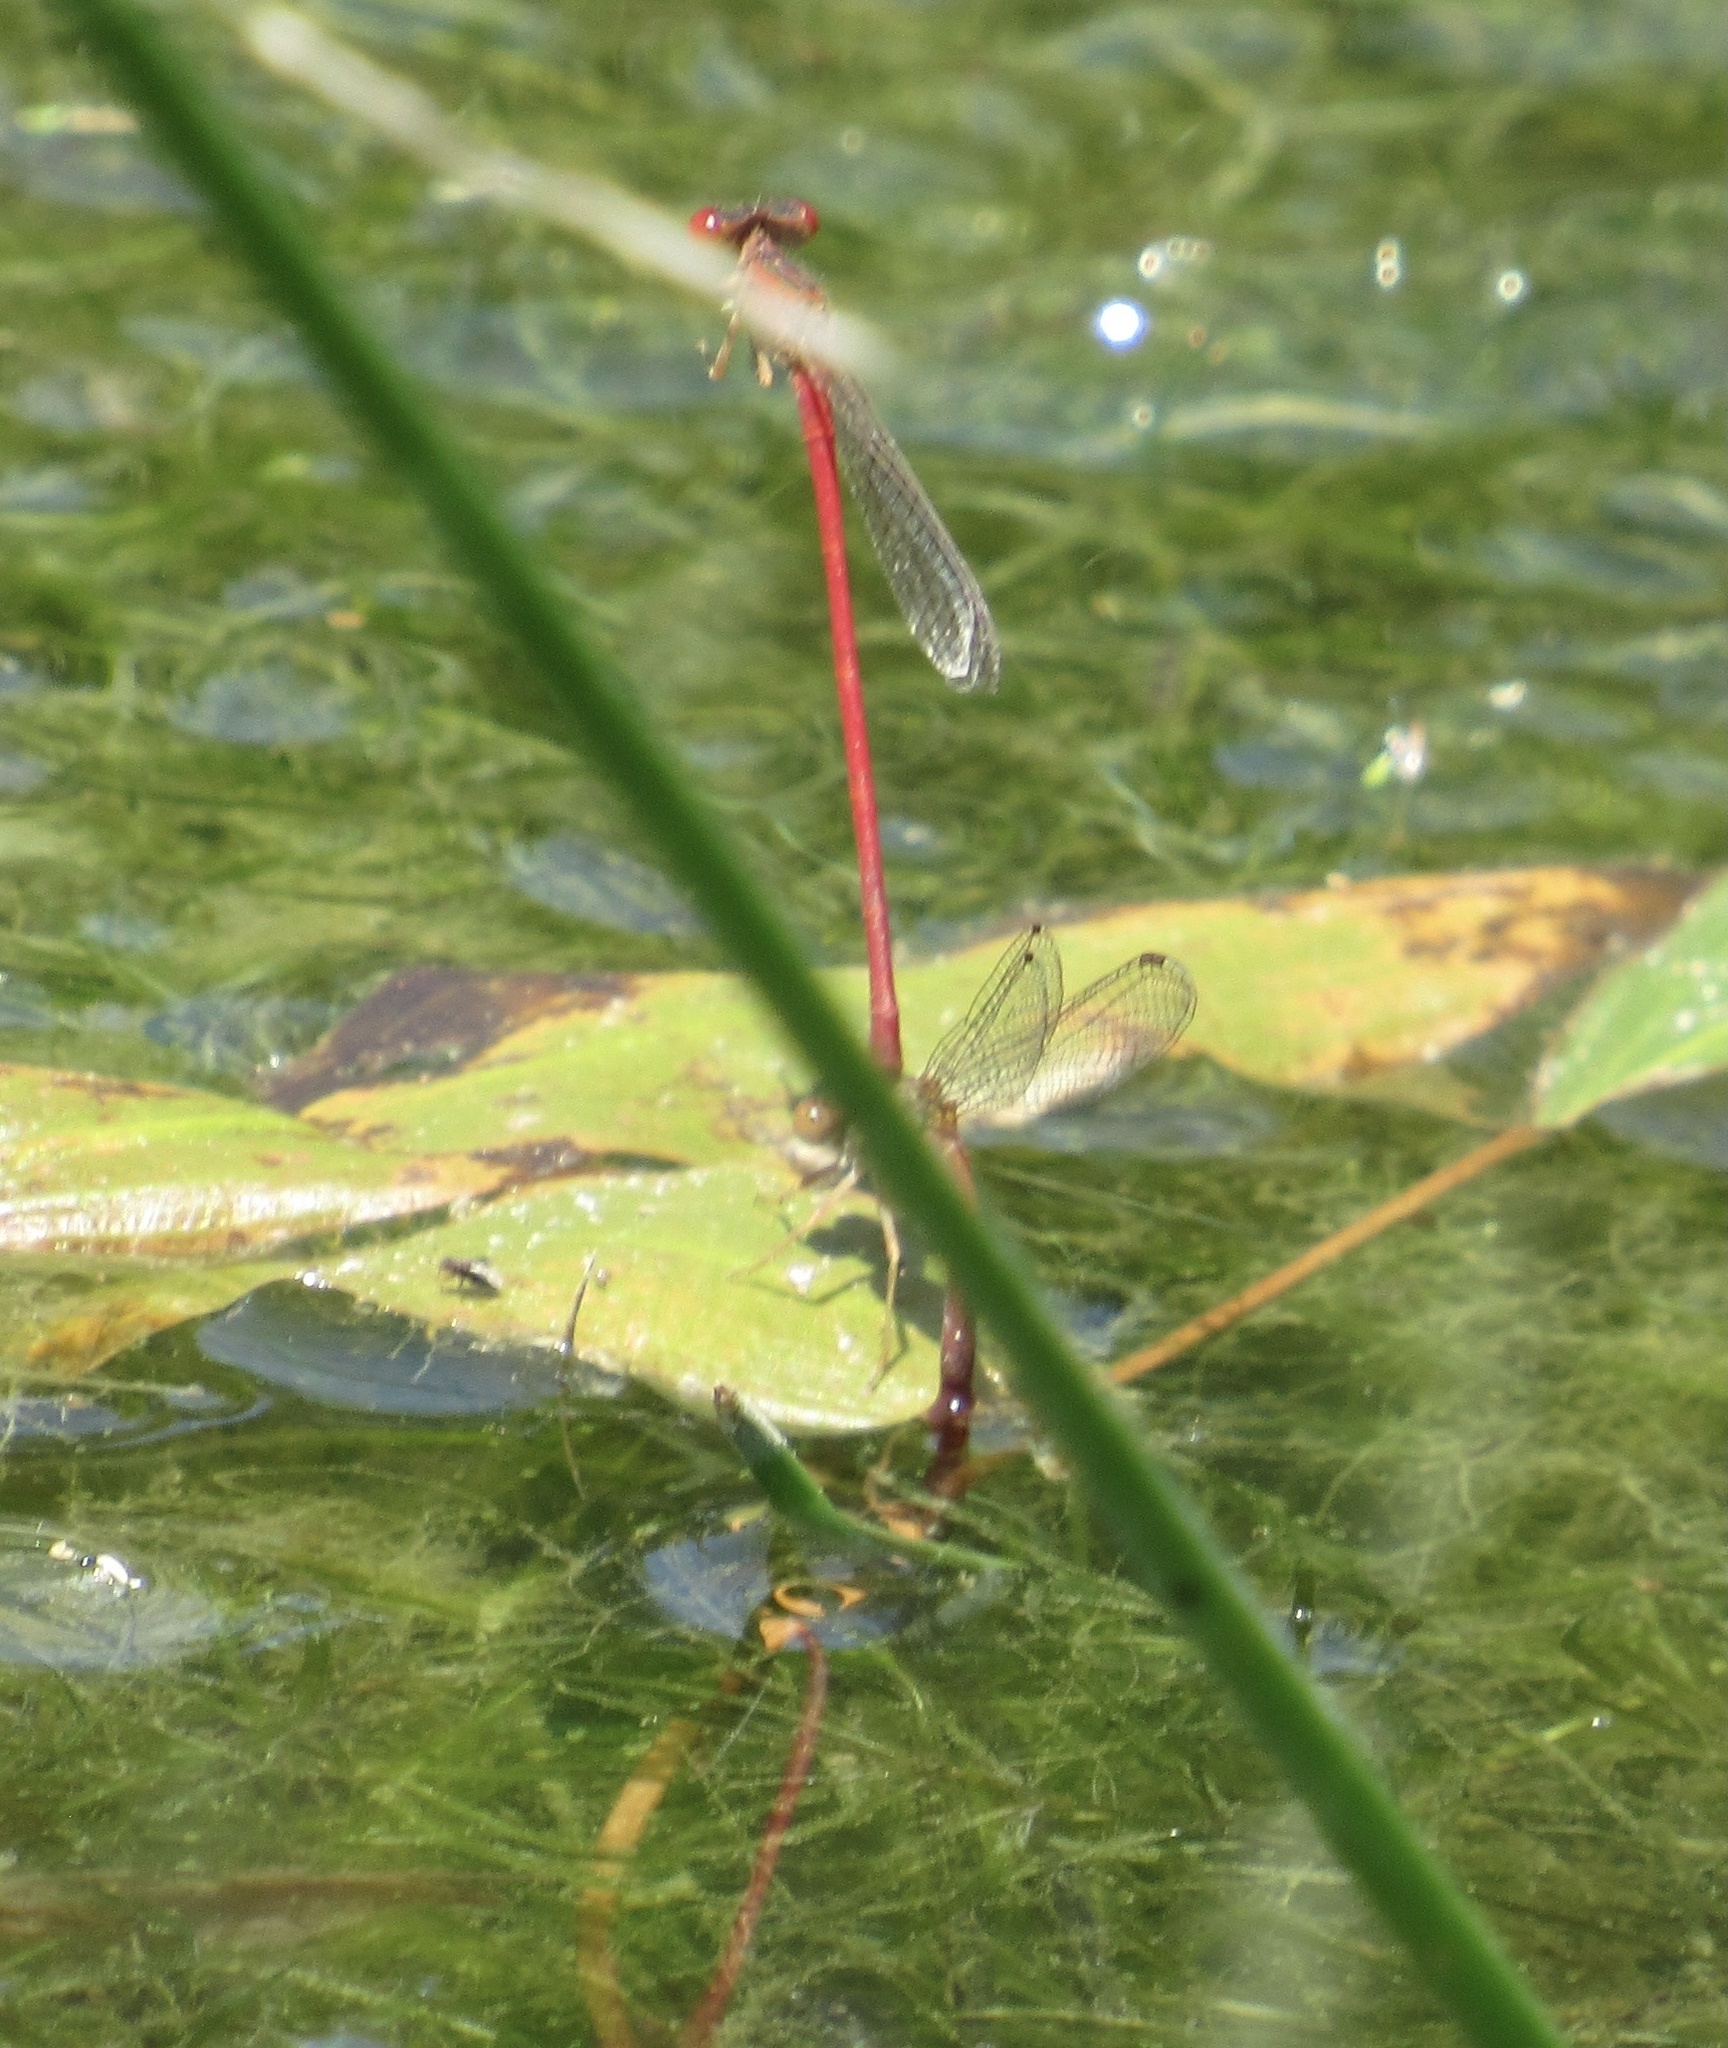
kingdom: Animalia
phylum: Arthropoda
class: Insecta
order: Odonata
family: Coenagrionidae
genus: Telebasis
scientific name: Telebasis salva
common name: Desert firetail
